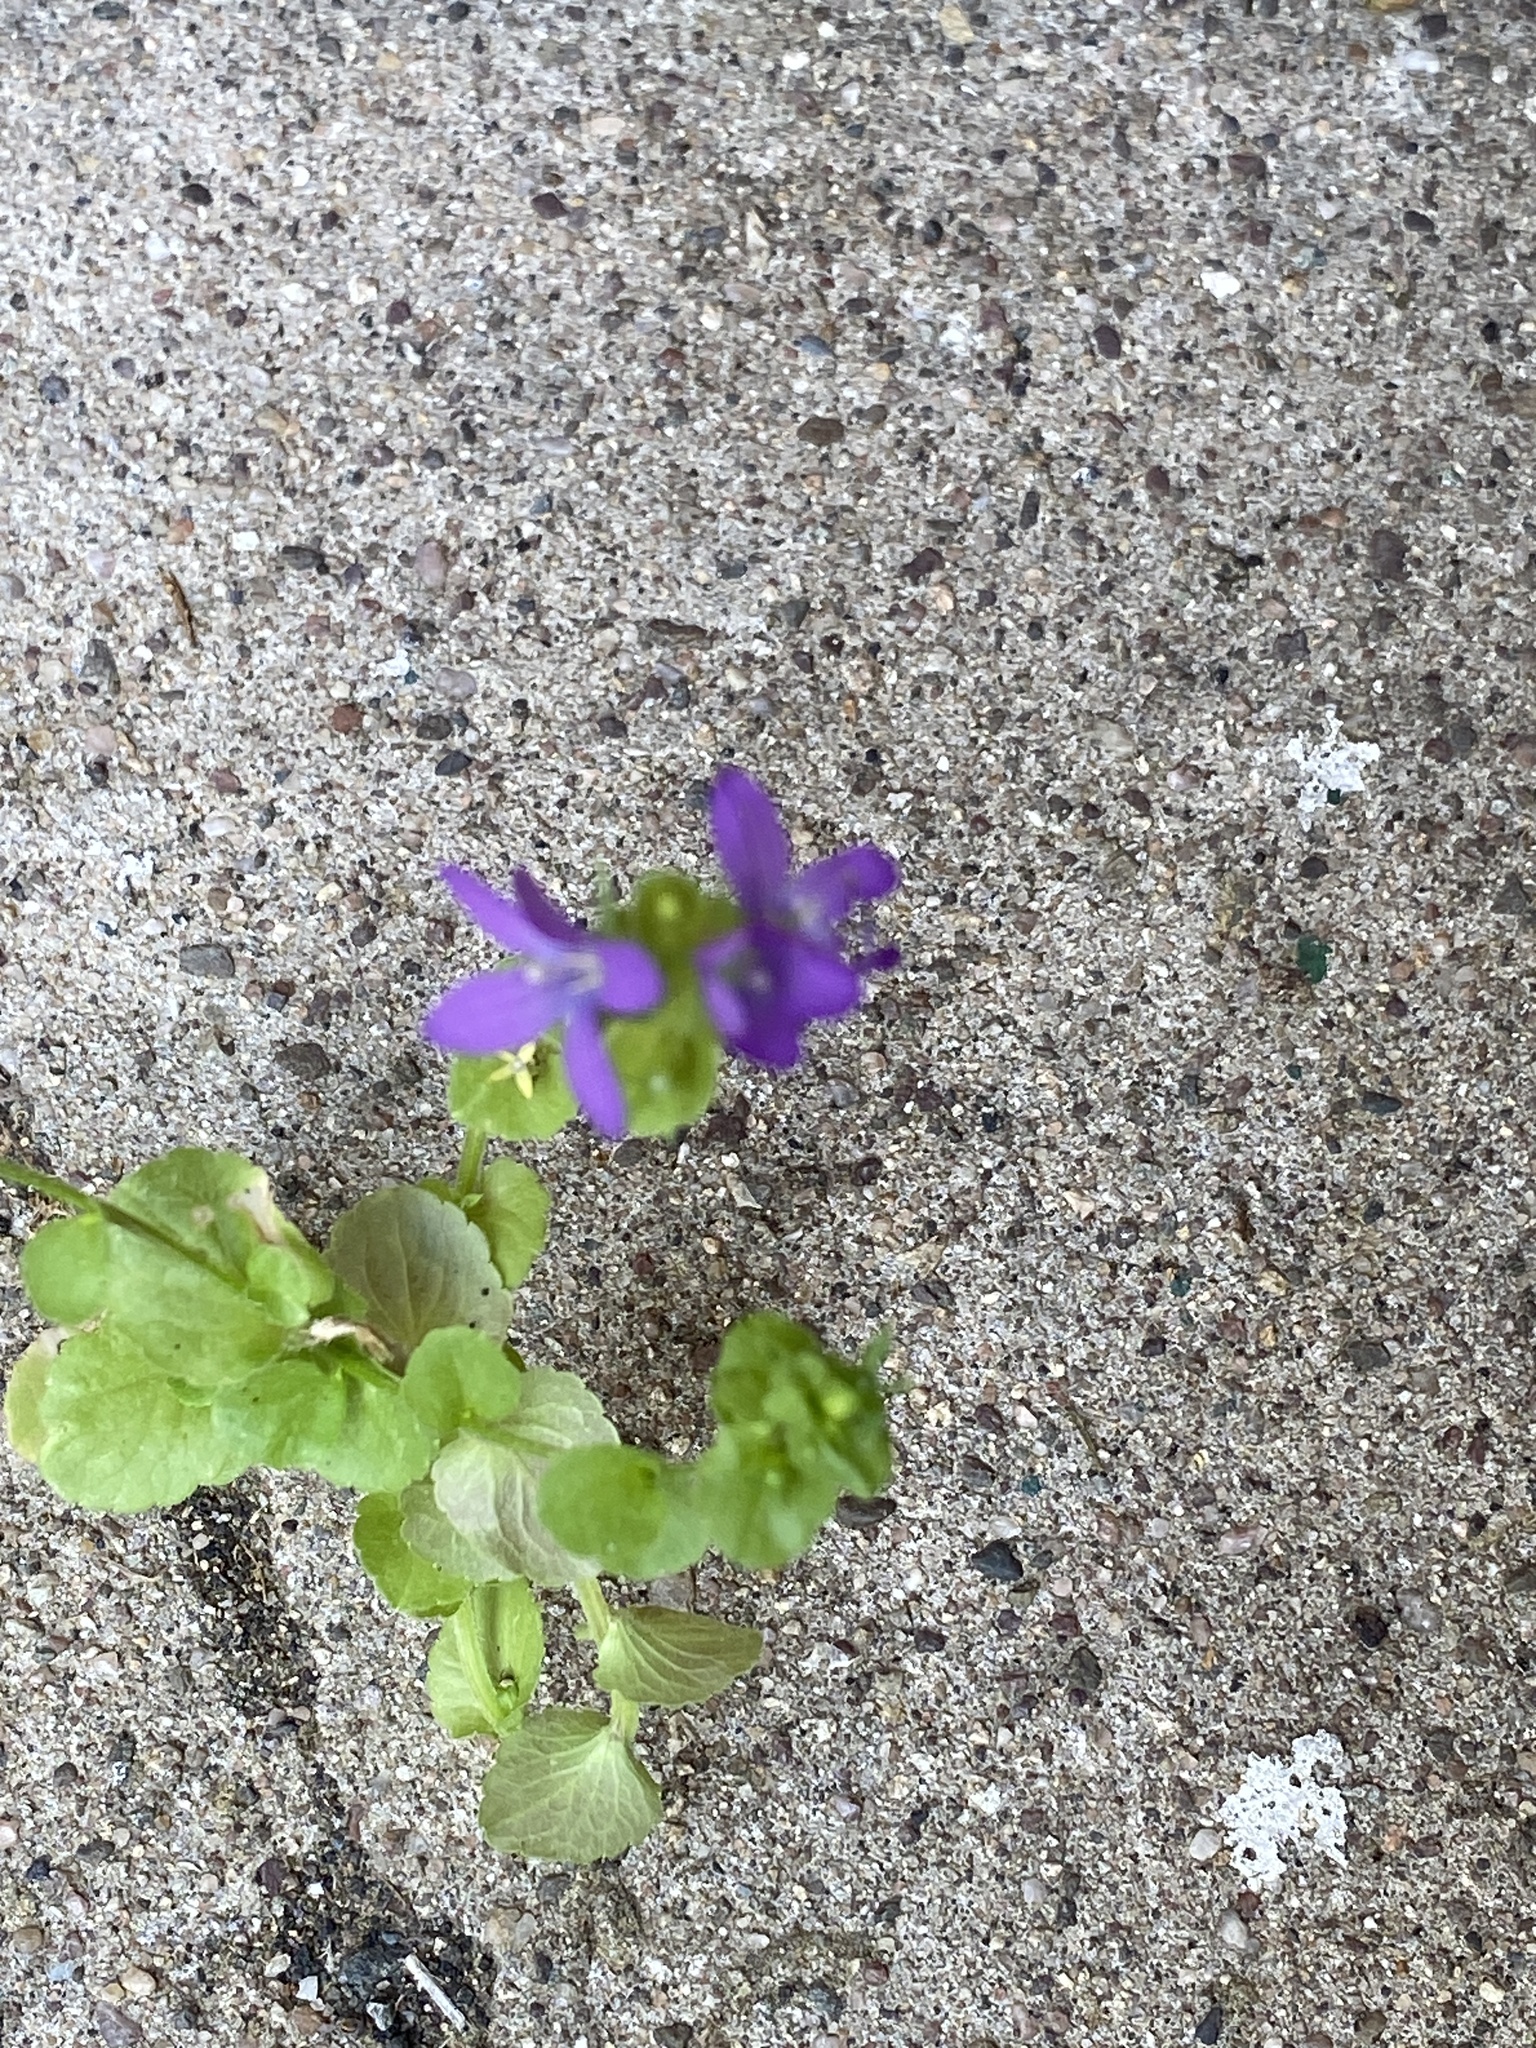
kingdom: Plantae
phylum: Tracheophyta
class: Magnoliopsida
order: Asterales
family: Campanulaceae
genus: Triodanis
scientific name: Triodanis perfoliata
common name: Clasping venus' looking-glass
